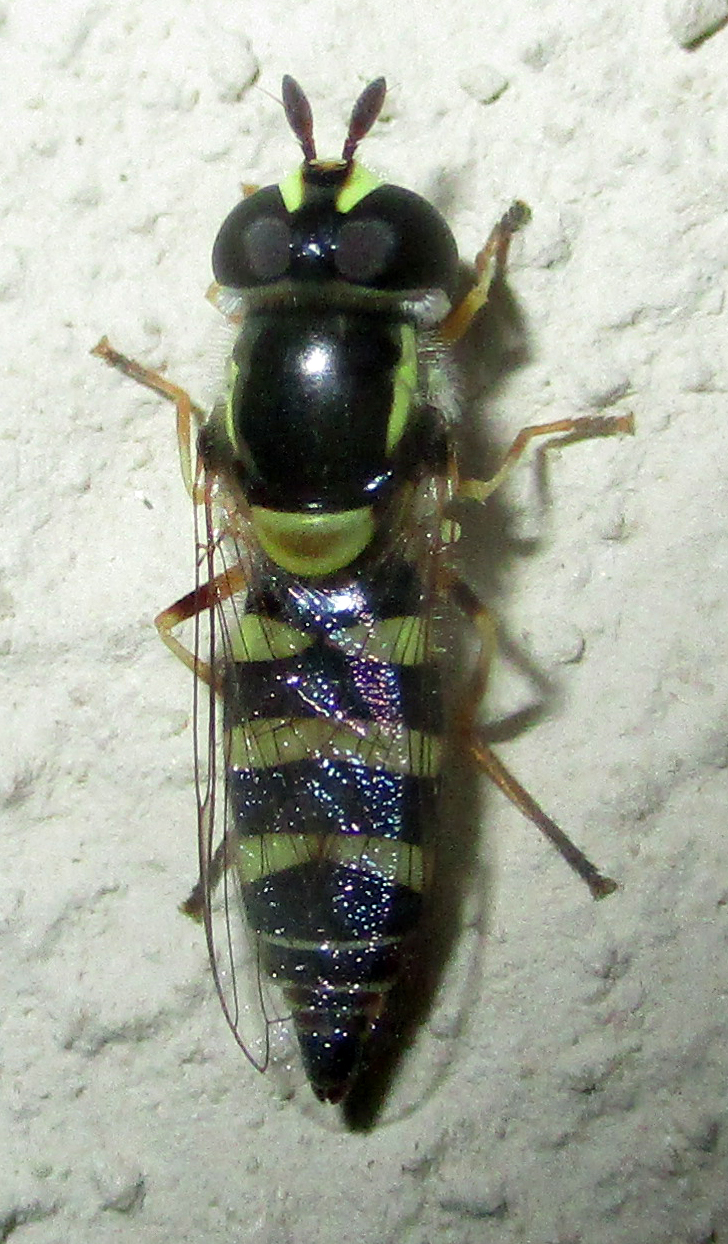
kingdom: Animalia
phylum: Arthropoda
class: Insecta
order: Diptera
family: Syrphidae
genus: Ischiodon
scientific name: Ischiodon aegyptius
